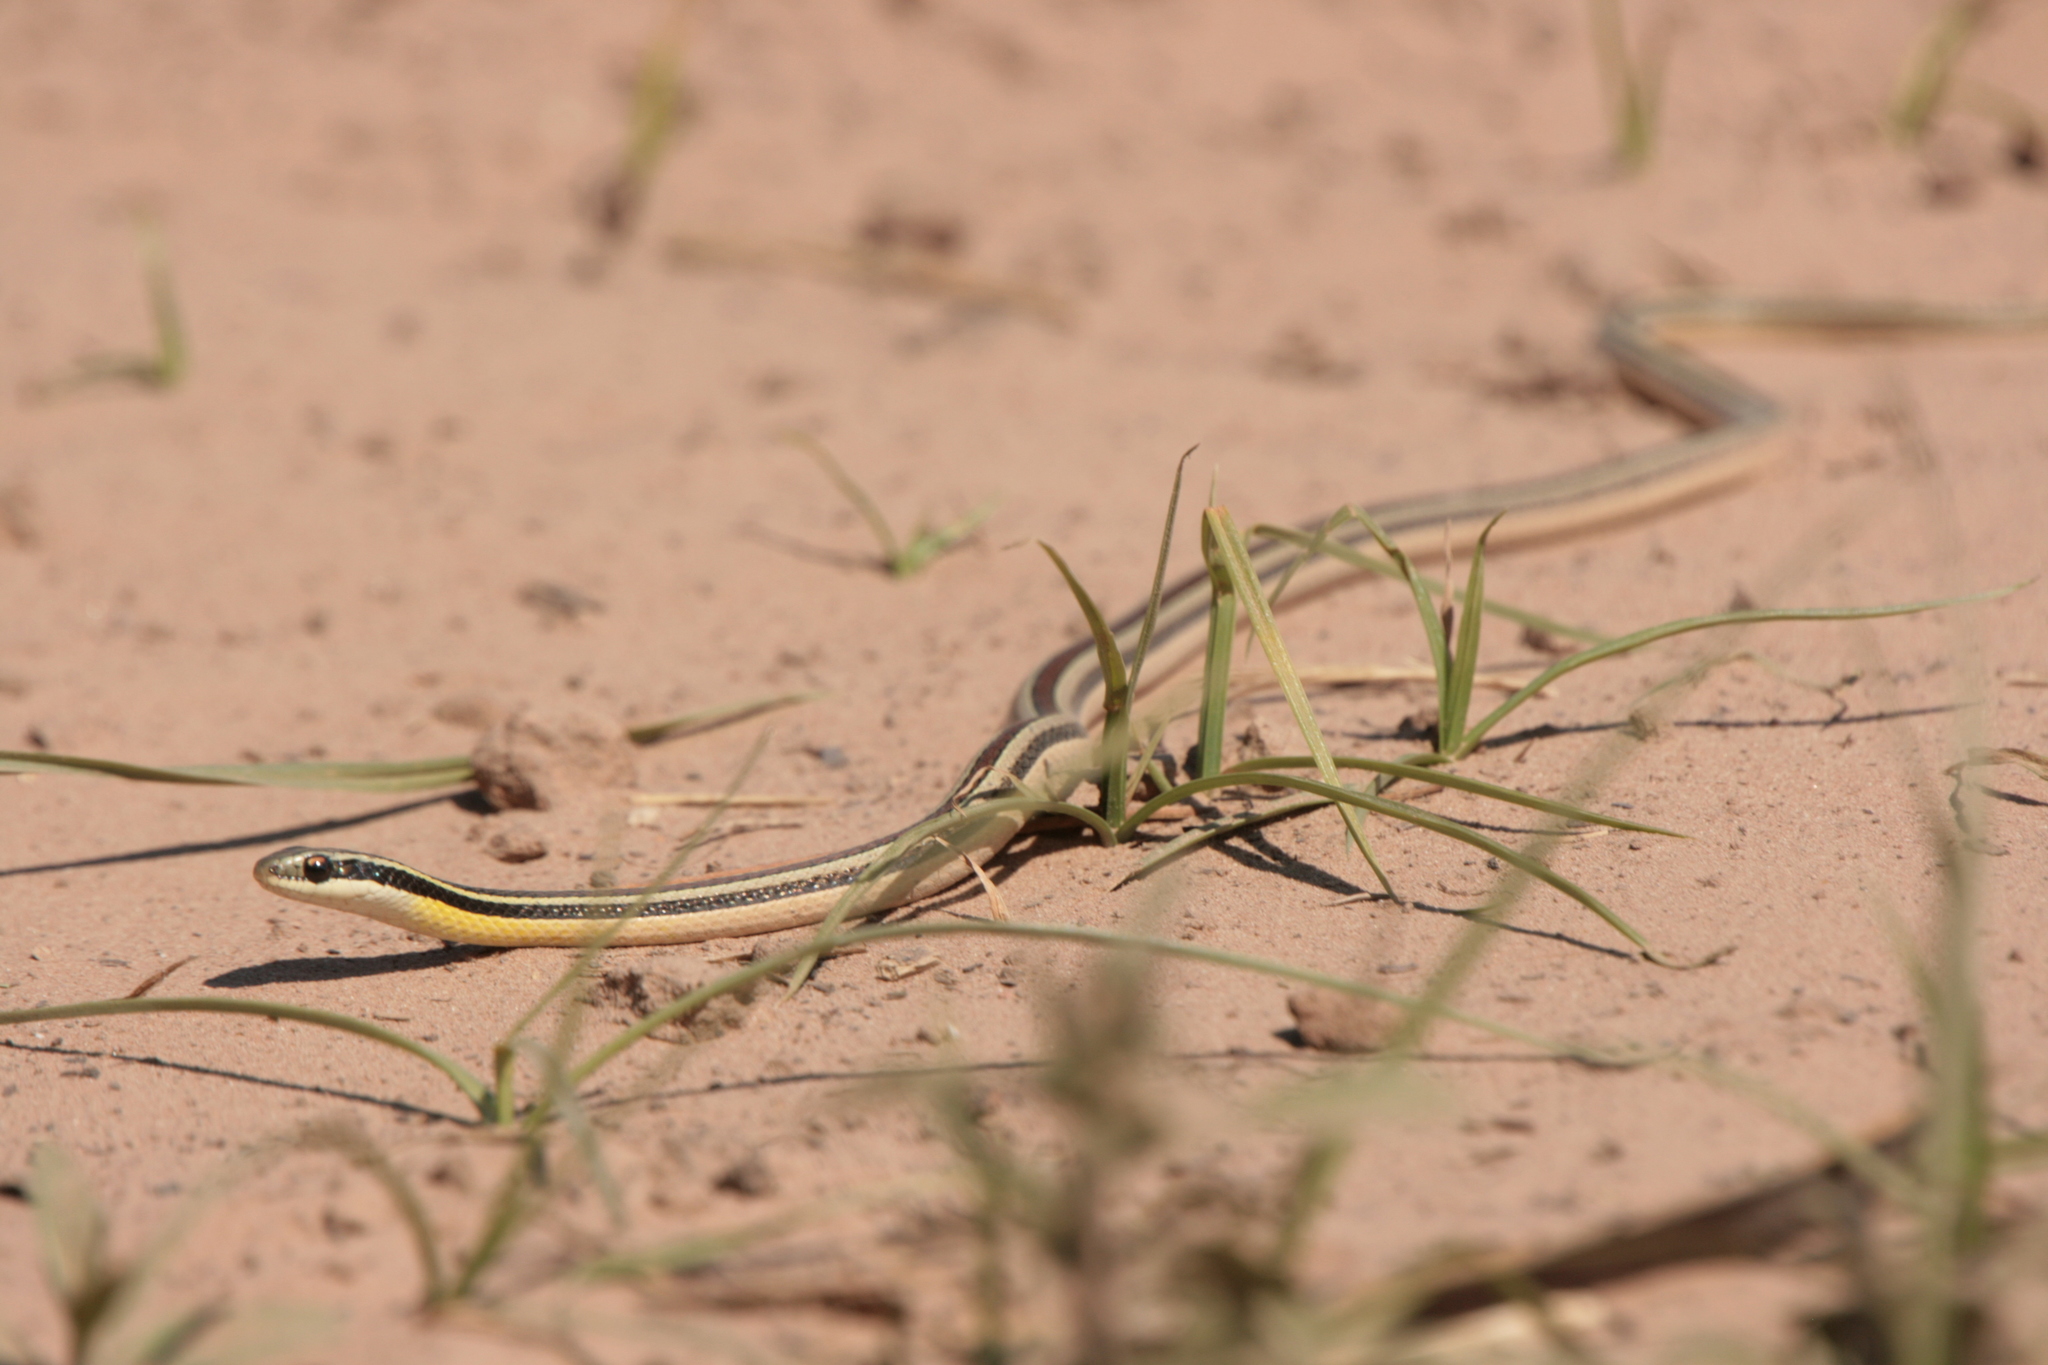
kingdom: Animalia
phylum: Chordata
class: Squamata
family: Colubridae
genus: Lygophis
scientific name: Lygophis dilepis
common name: Lema's ground snake
